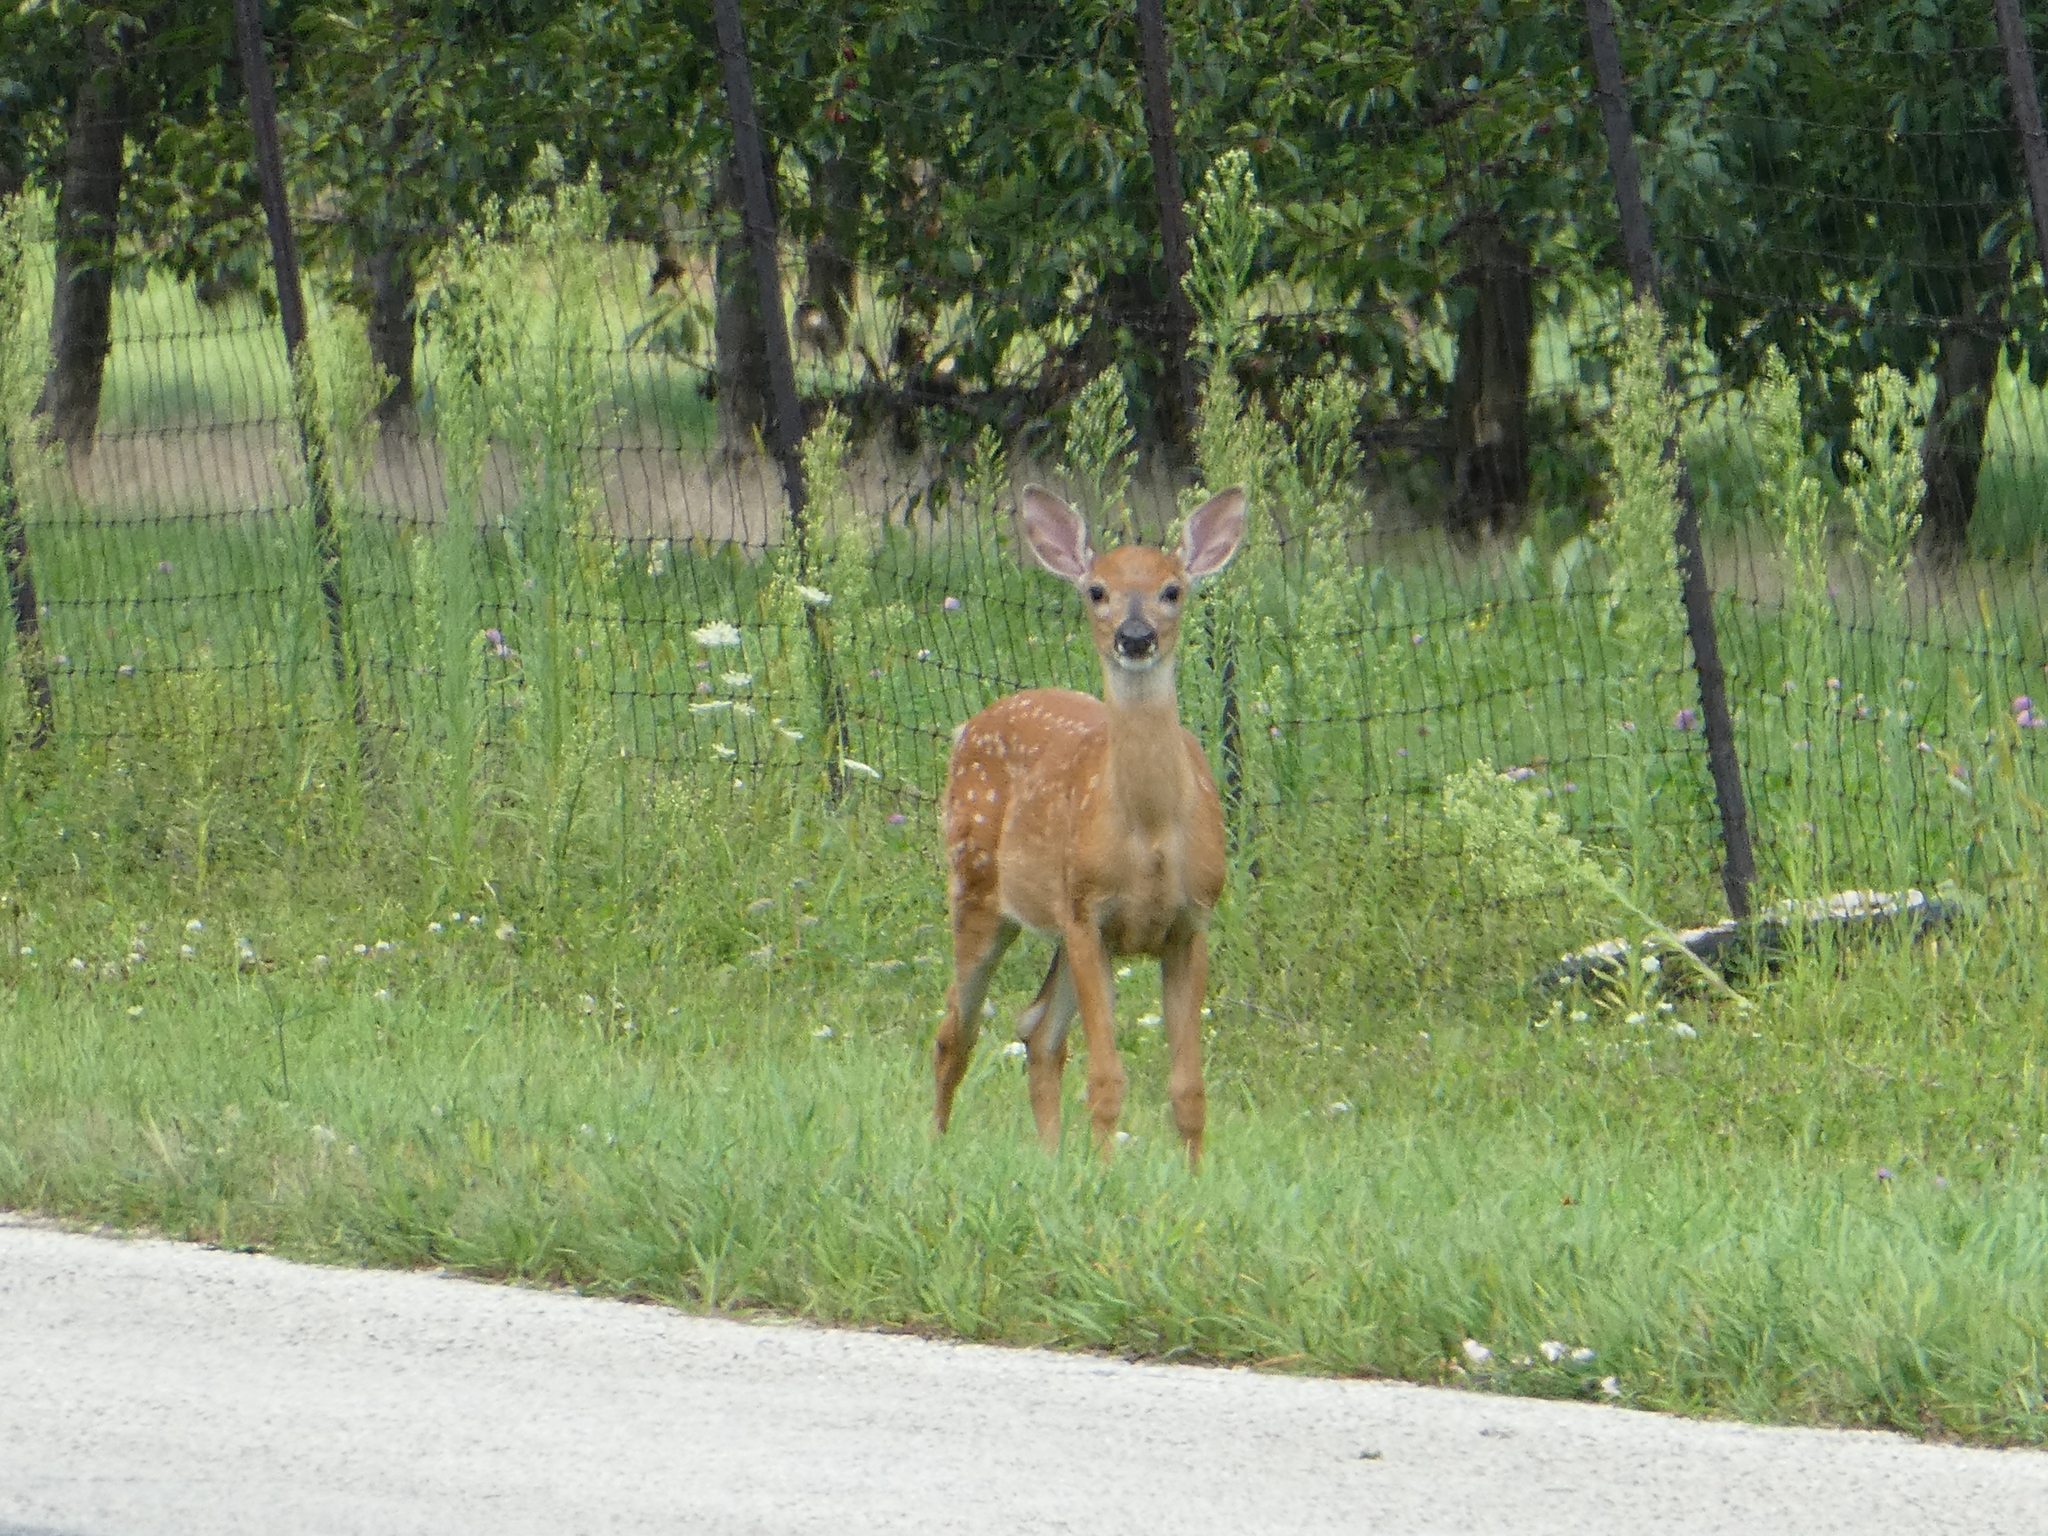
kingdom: Animalia
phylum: Chordata
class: Mammalia
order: Artiodactyla
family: Cervidae
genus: Odocoileus
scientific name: Odocoileus virginianus
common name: White-tailed deer
